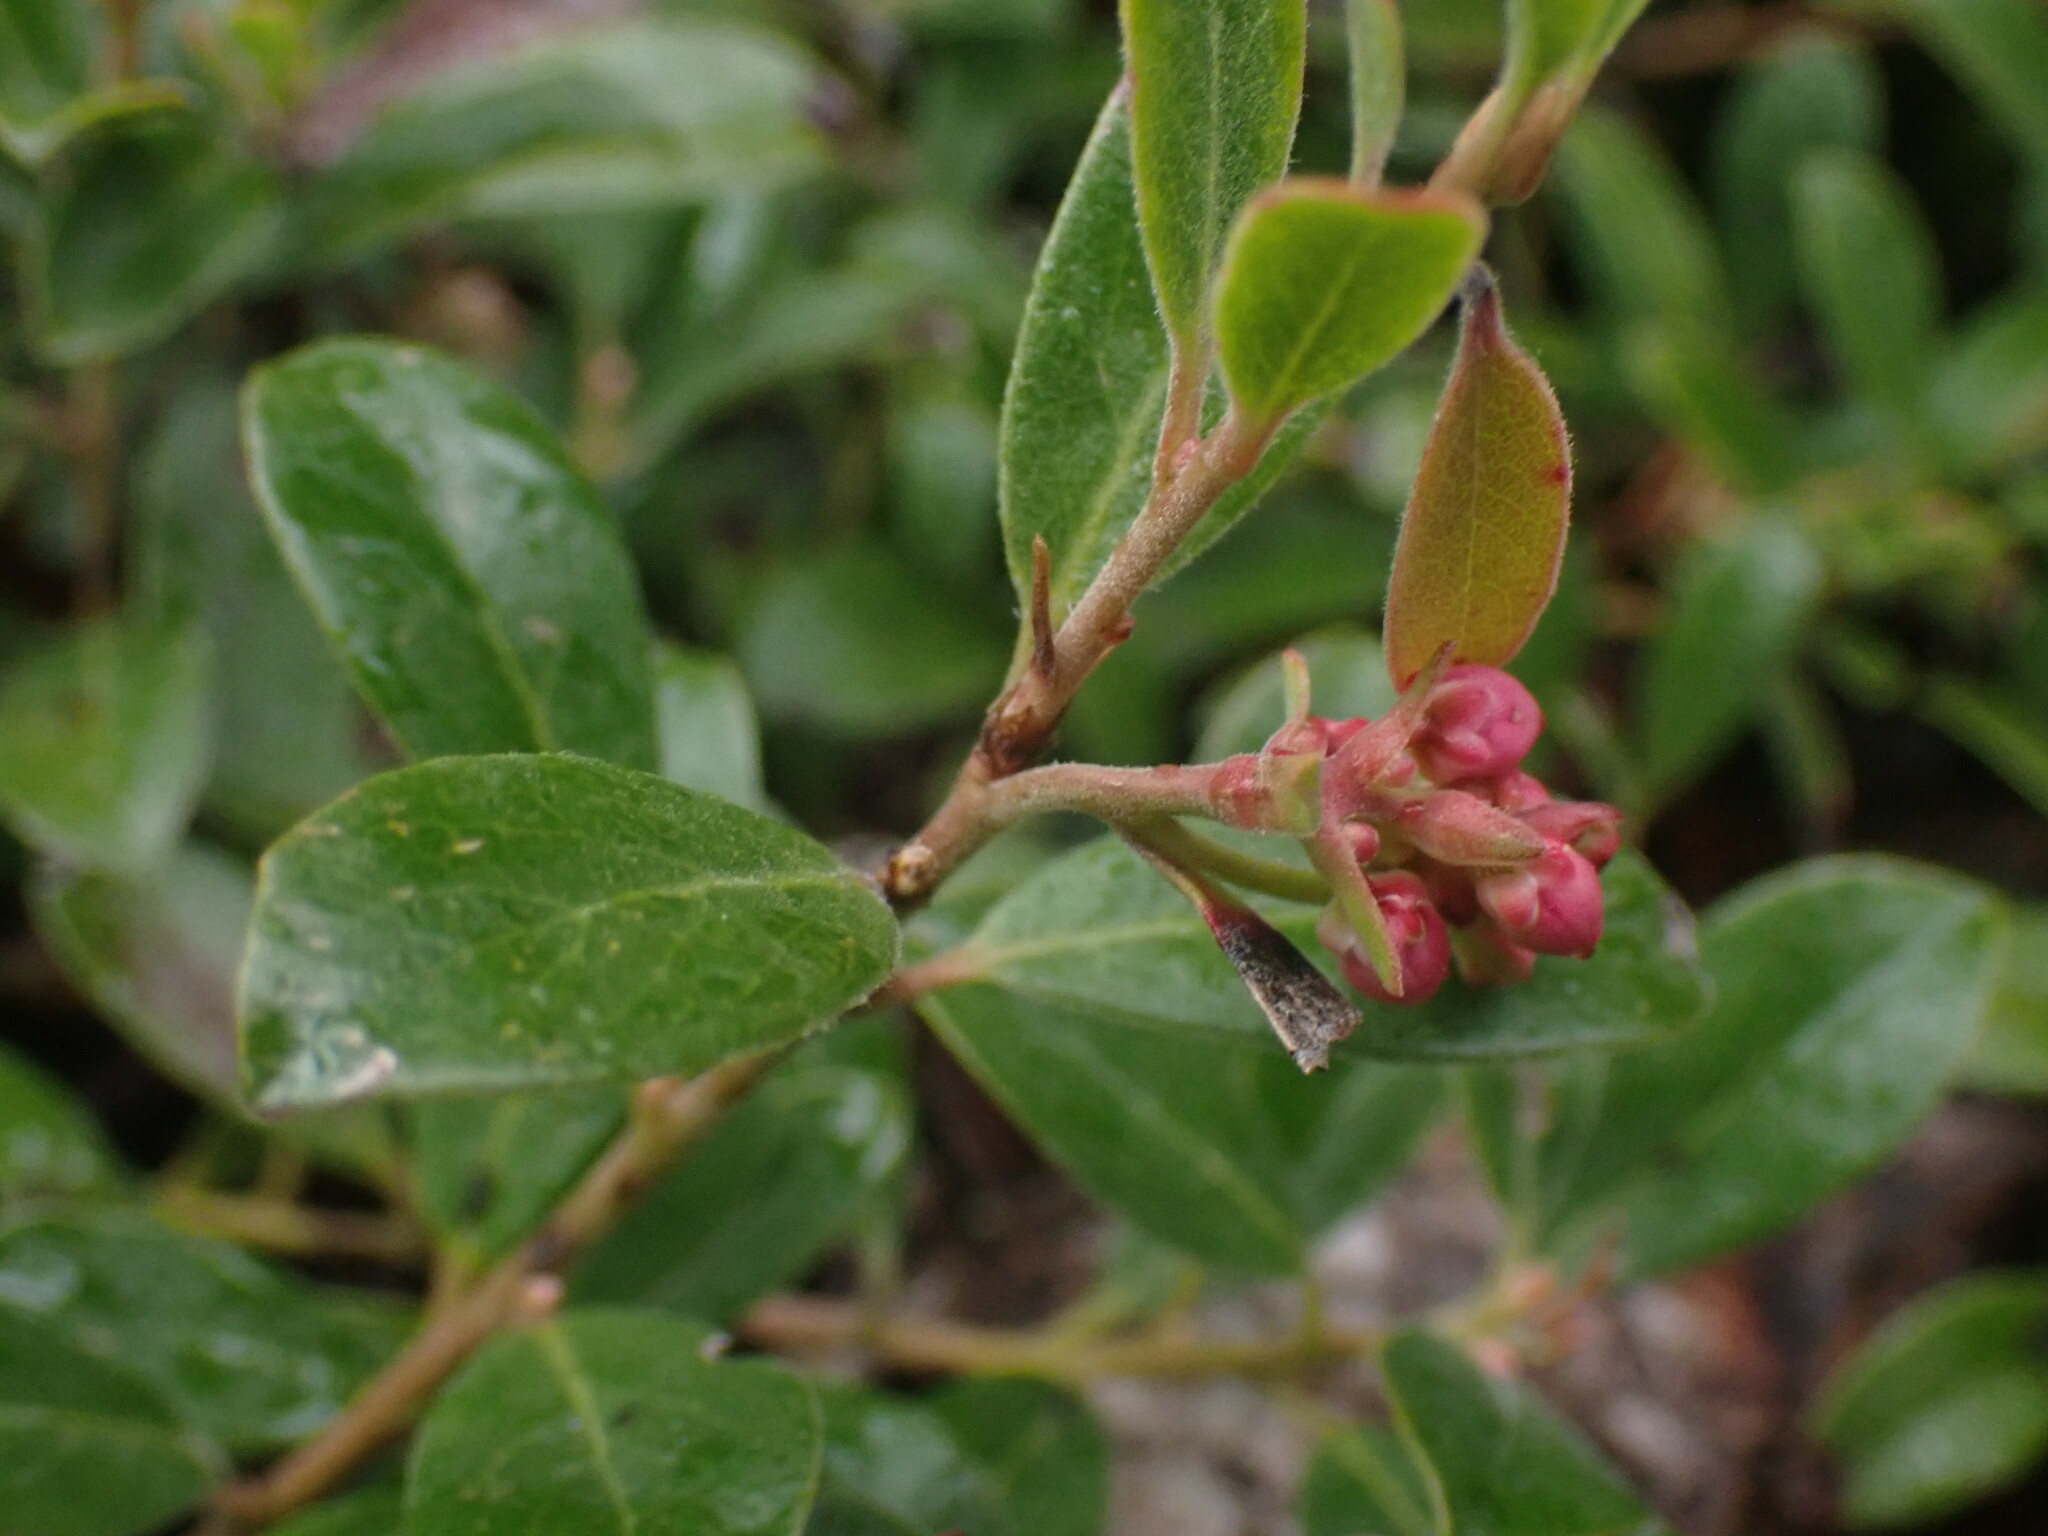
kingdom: Plantae
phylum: Tracheophyta
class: Magnoliopsida
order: Ericales
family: Ericaceae
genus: Arctostaphylos
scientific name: Arctostaphylos uva-ursi
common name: Bearberry
